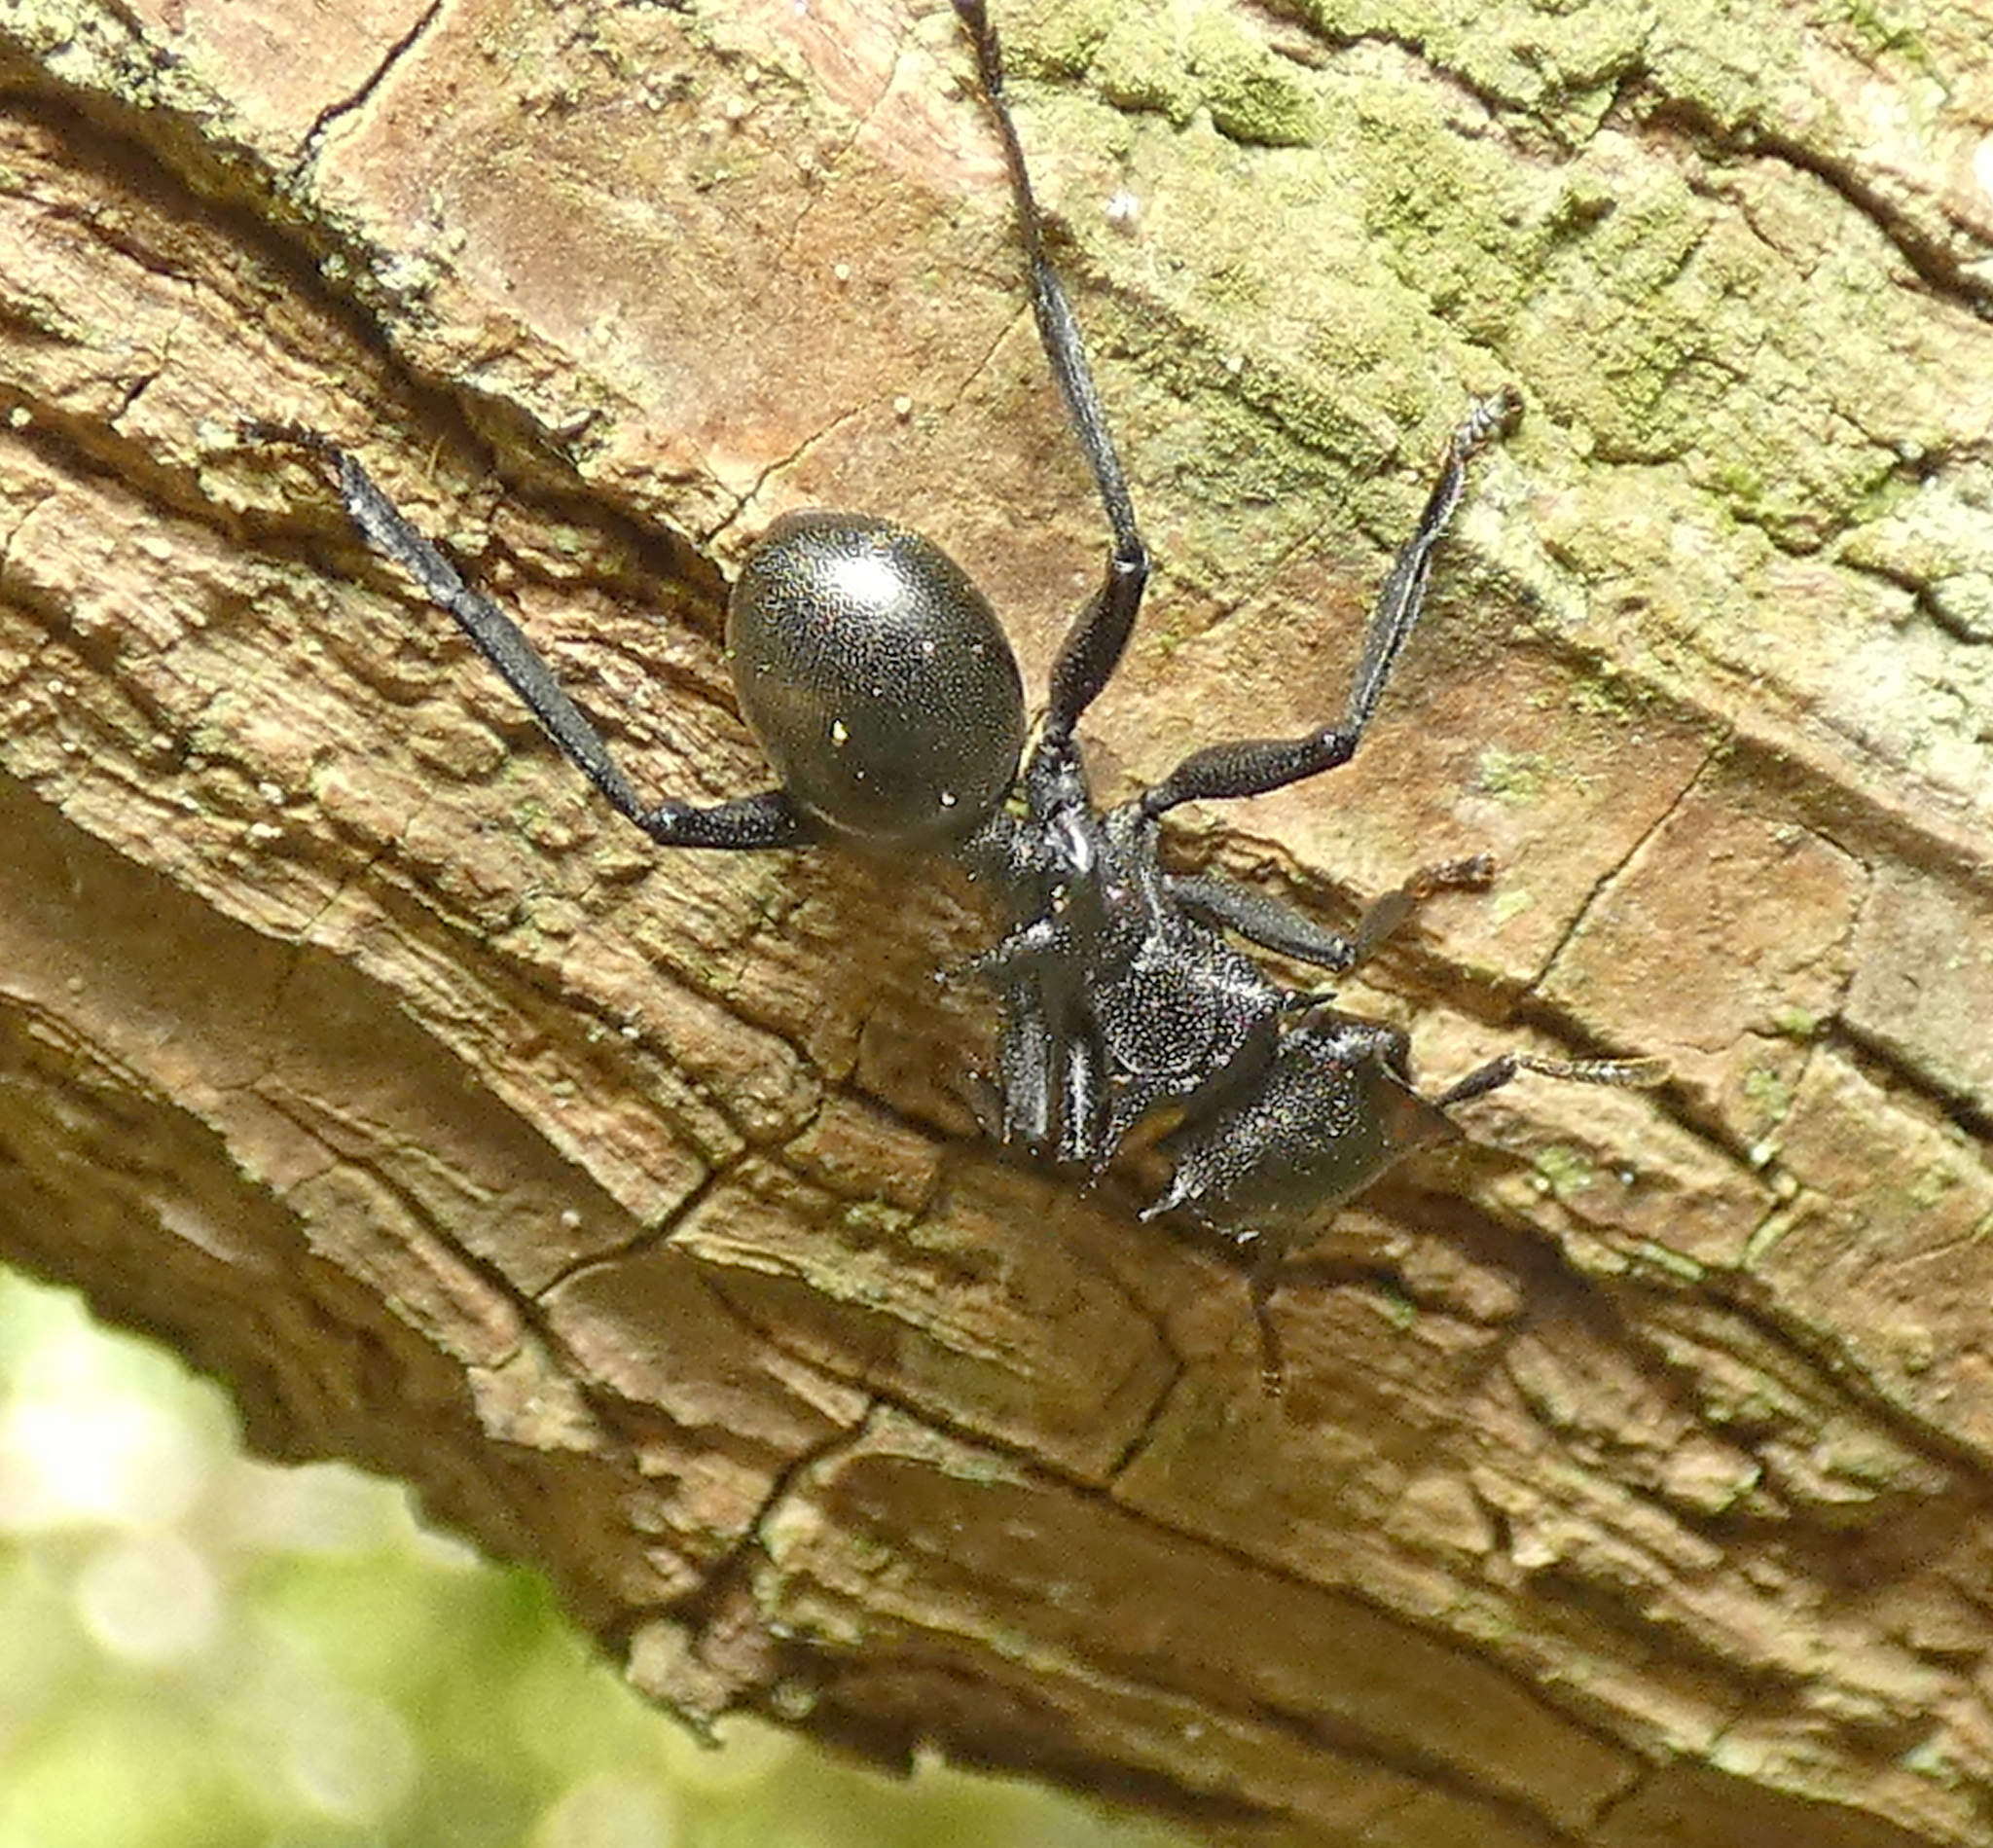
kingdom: Animalia
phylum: Arthropoda
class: Insecta
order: Hymenoptera
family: Formicidae
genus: Cephalotes
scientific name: Cephalotes atratus
